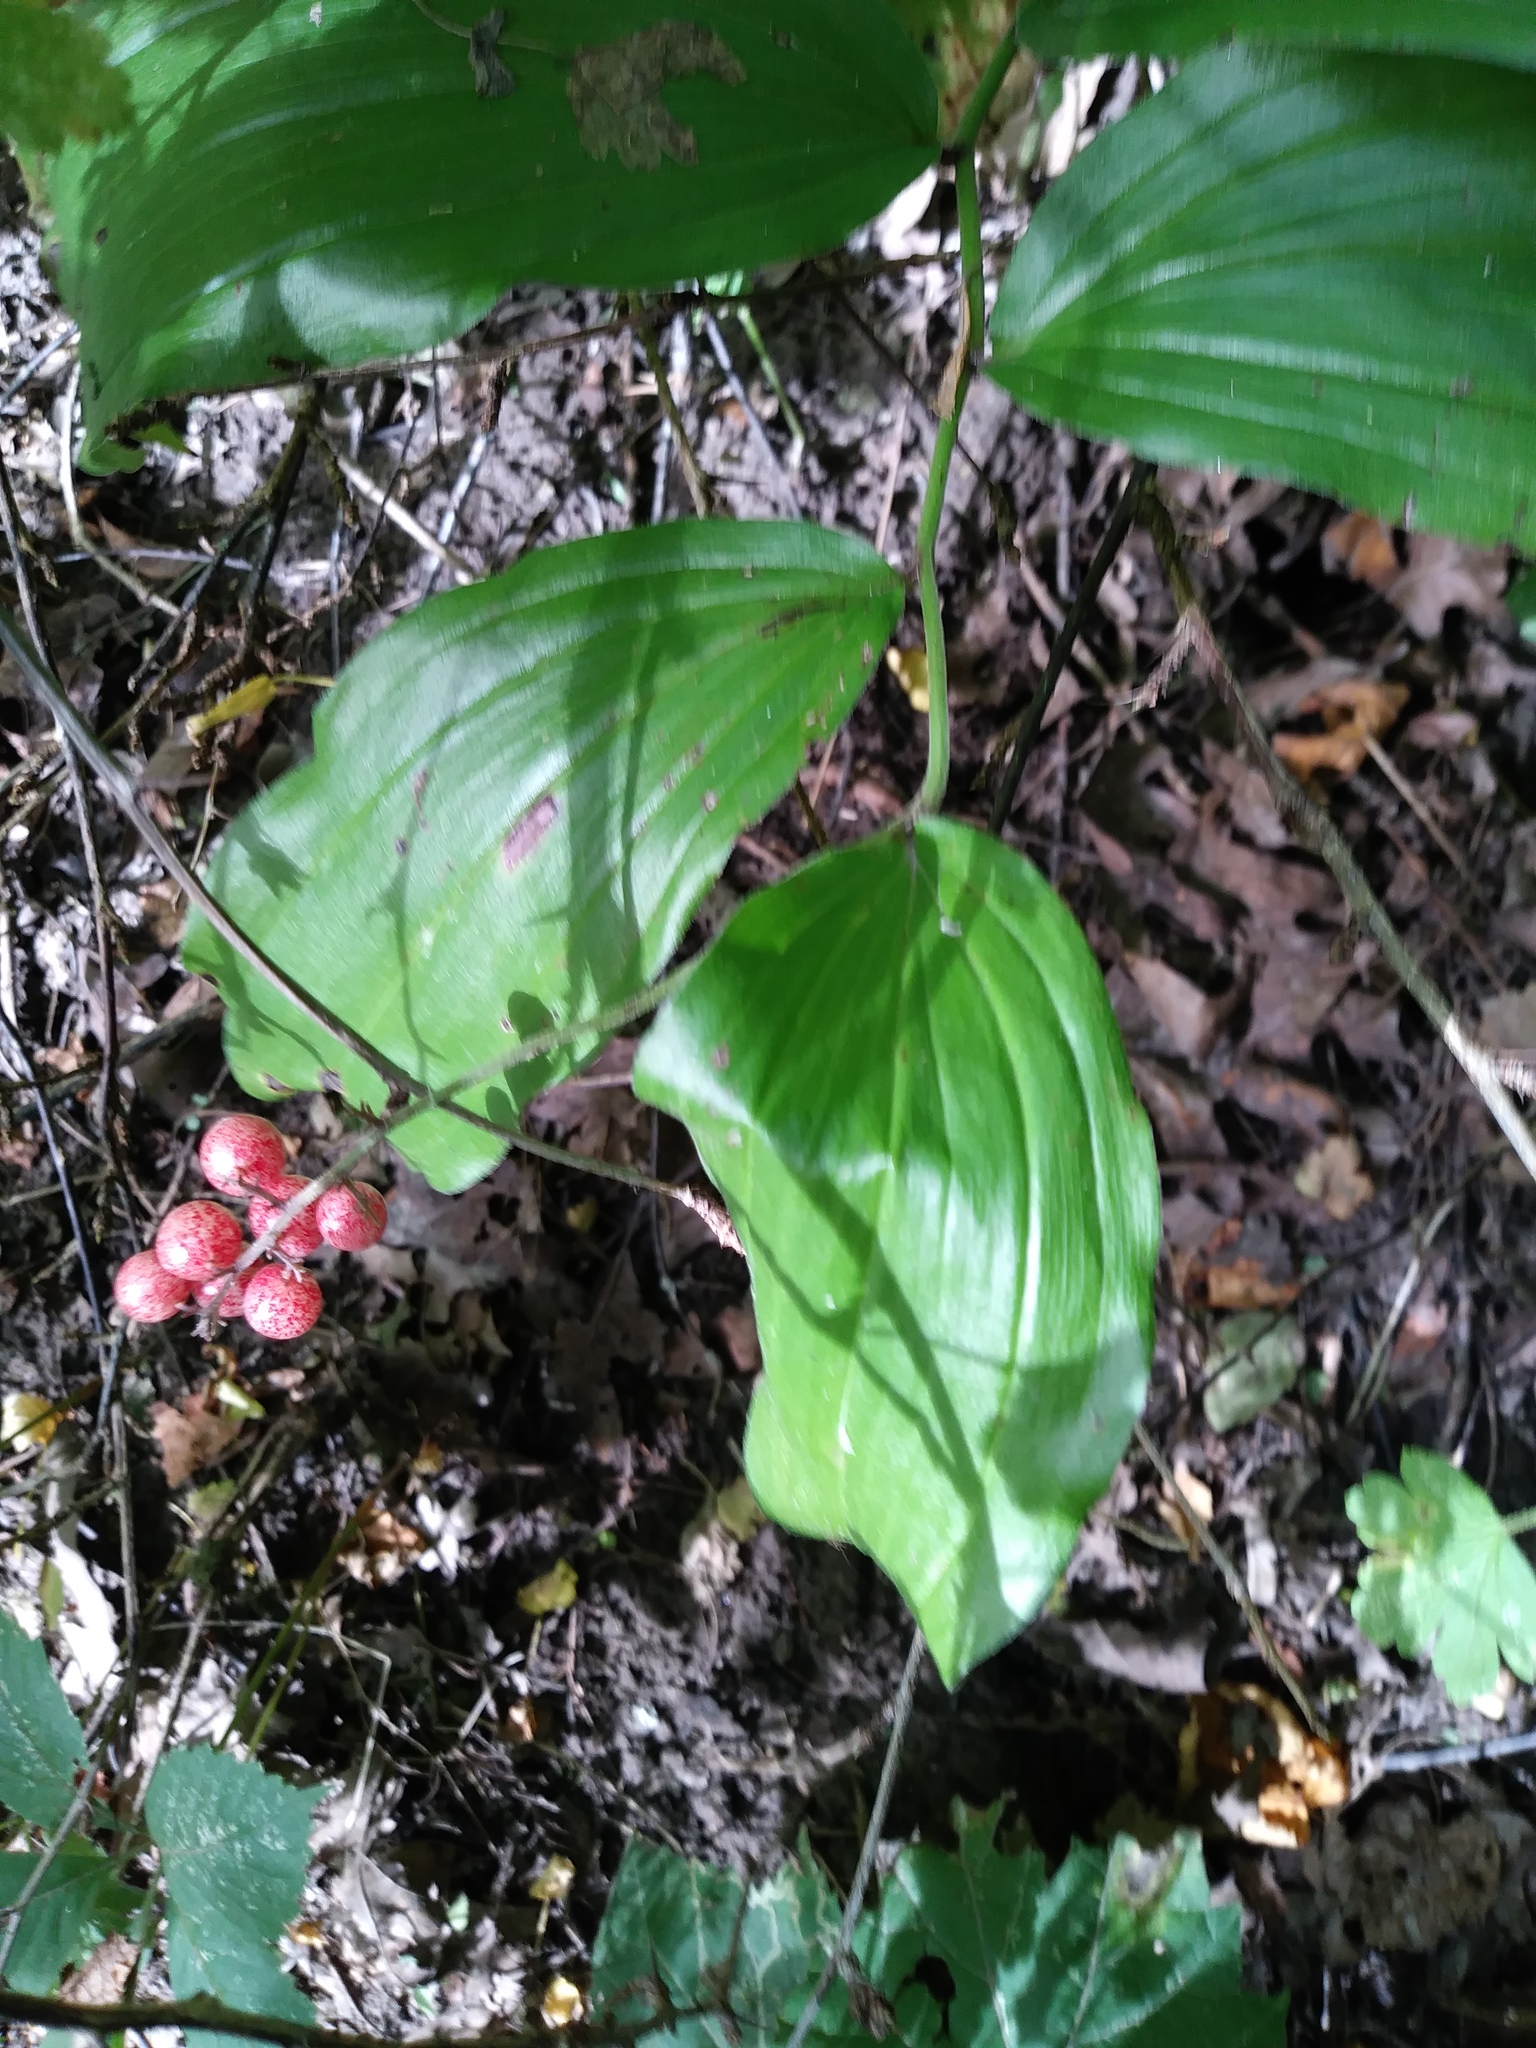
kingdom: Plantae
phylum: Tracheophyta
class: Liliopsida
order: Asparagales
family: Asparagaceae
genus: Maianthemum
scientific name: Maianthemum racemosum
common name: False spikenard
